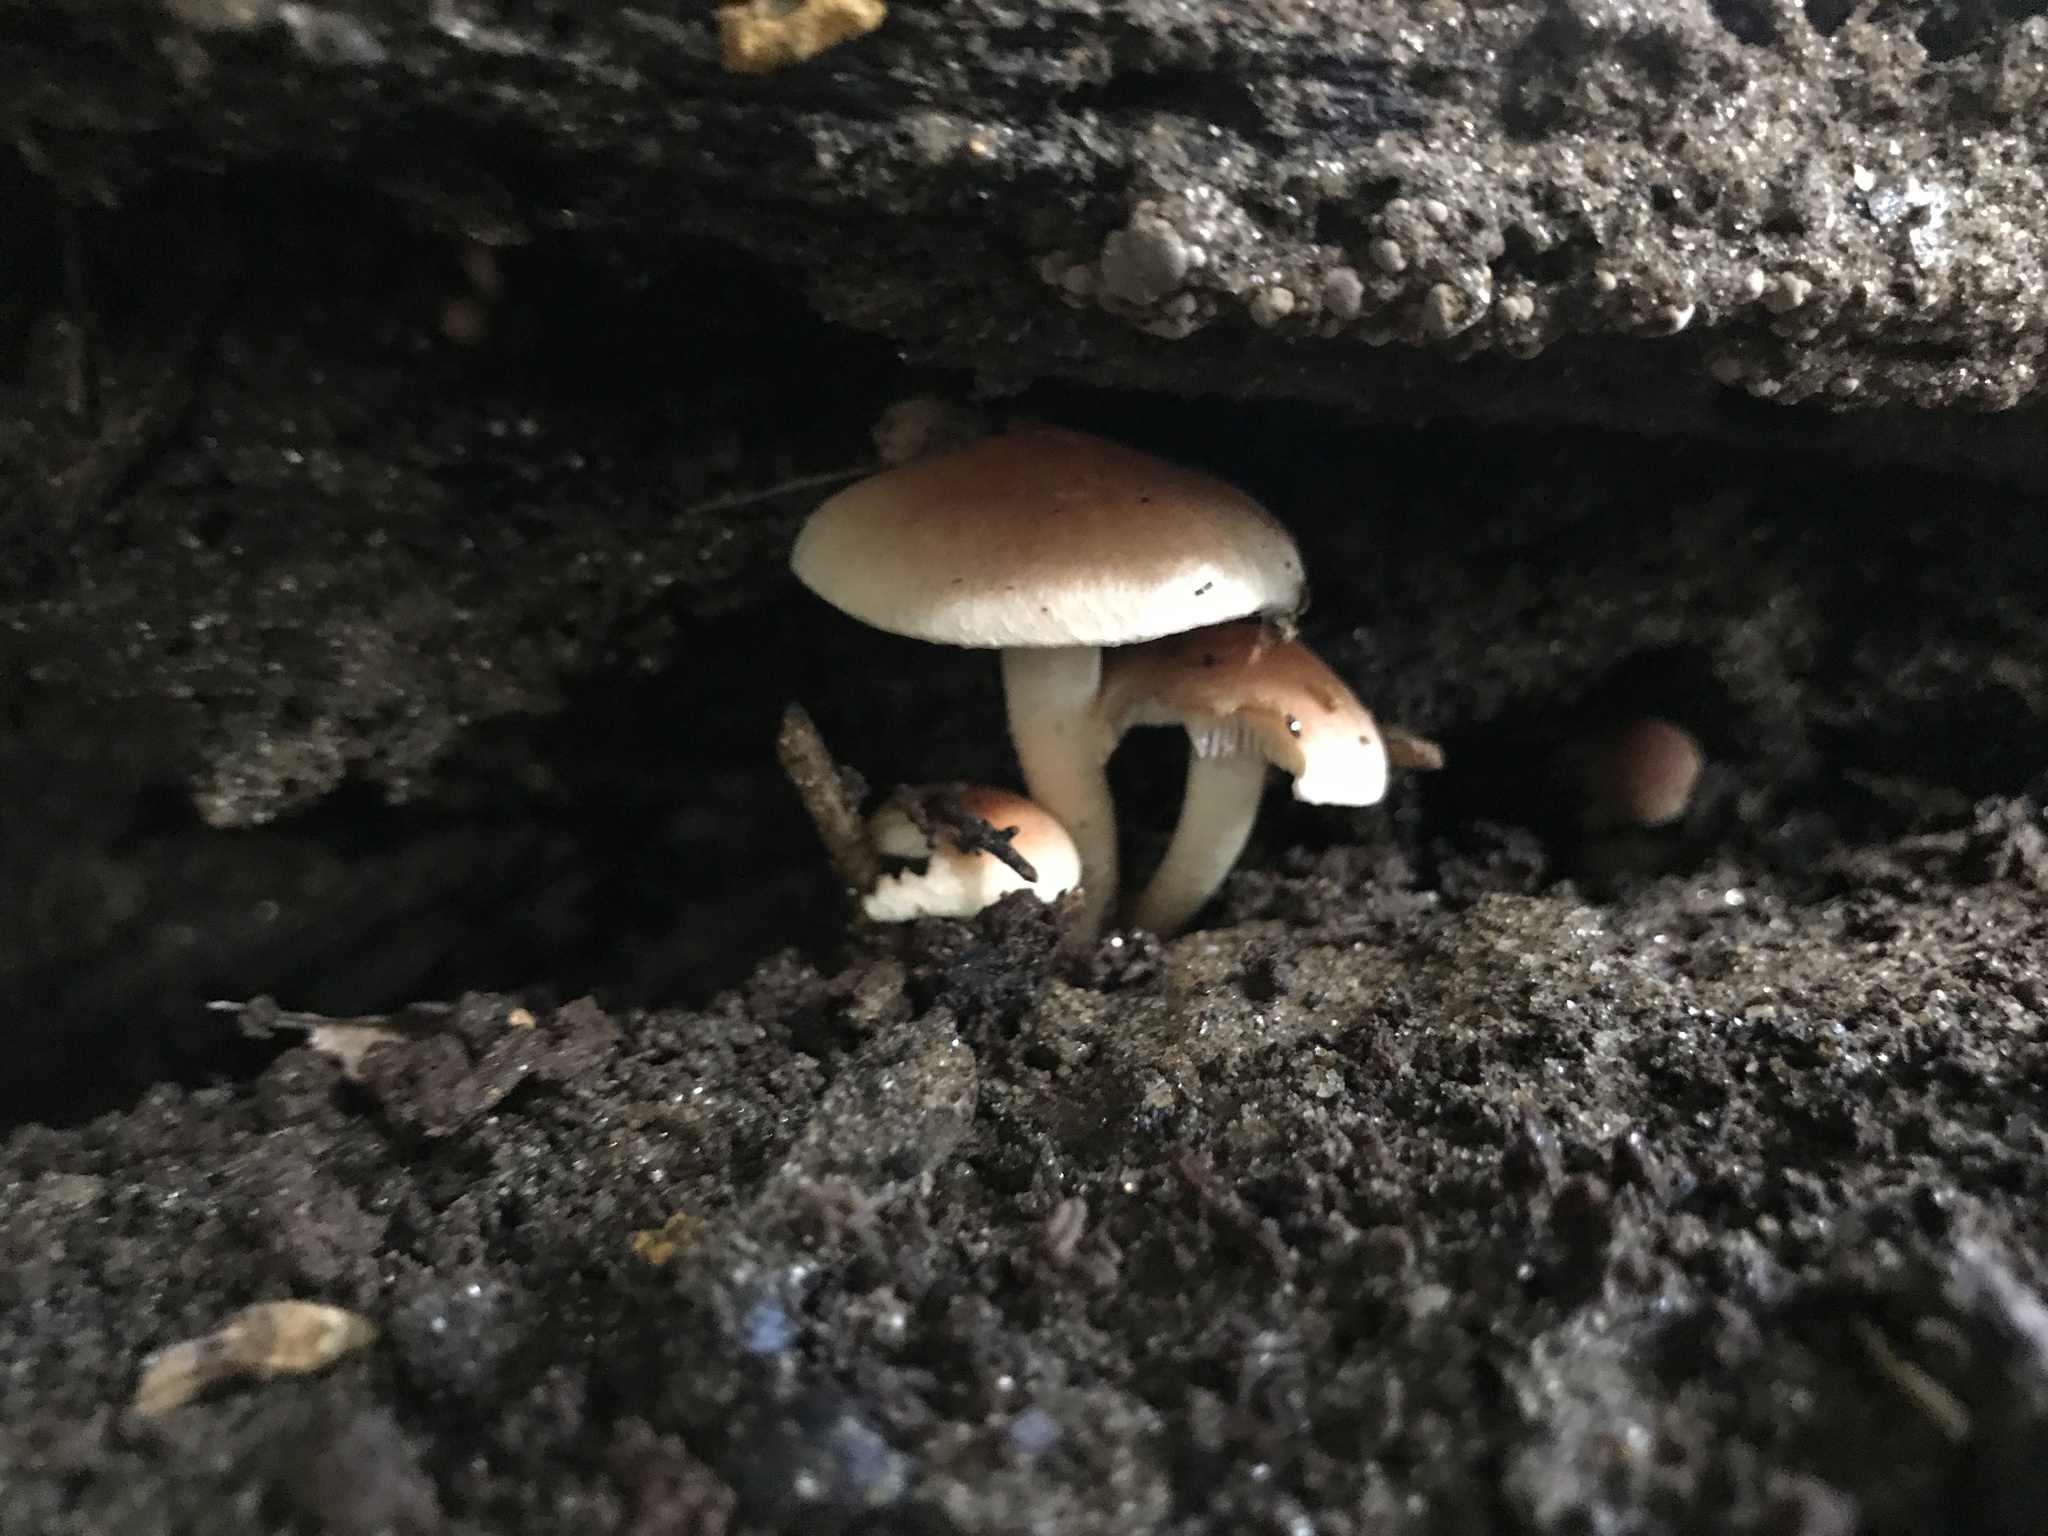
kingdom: Fungi
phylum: Basidiomycota
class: Agaricomycetes
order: Agaricales
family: Strophariaceae
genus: Hypholoma
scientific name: Hypholoma lateritium
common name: Brick caps
